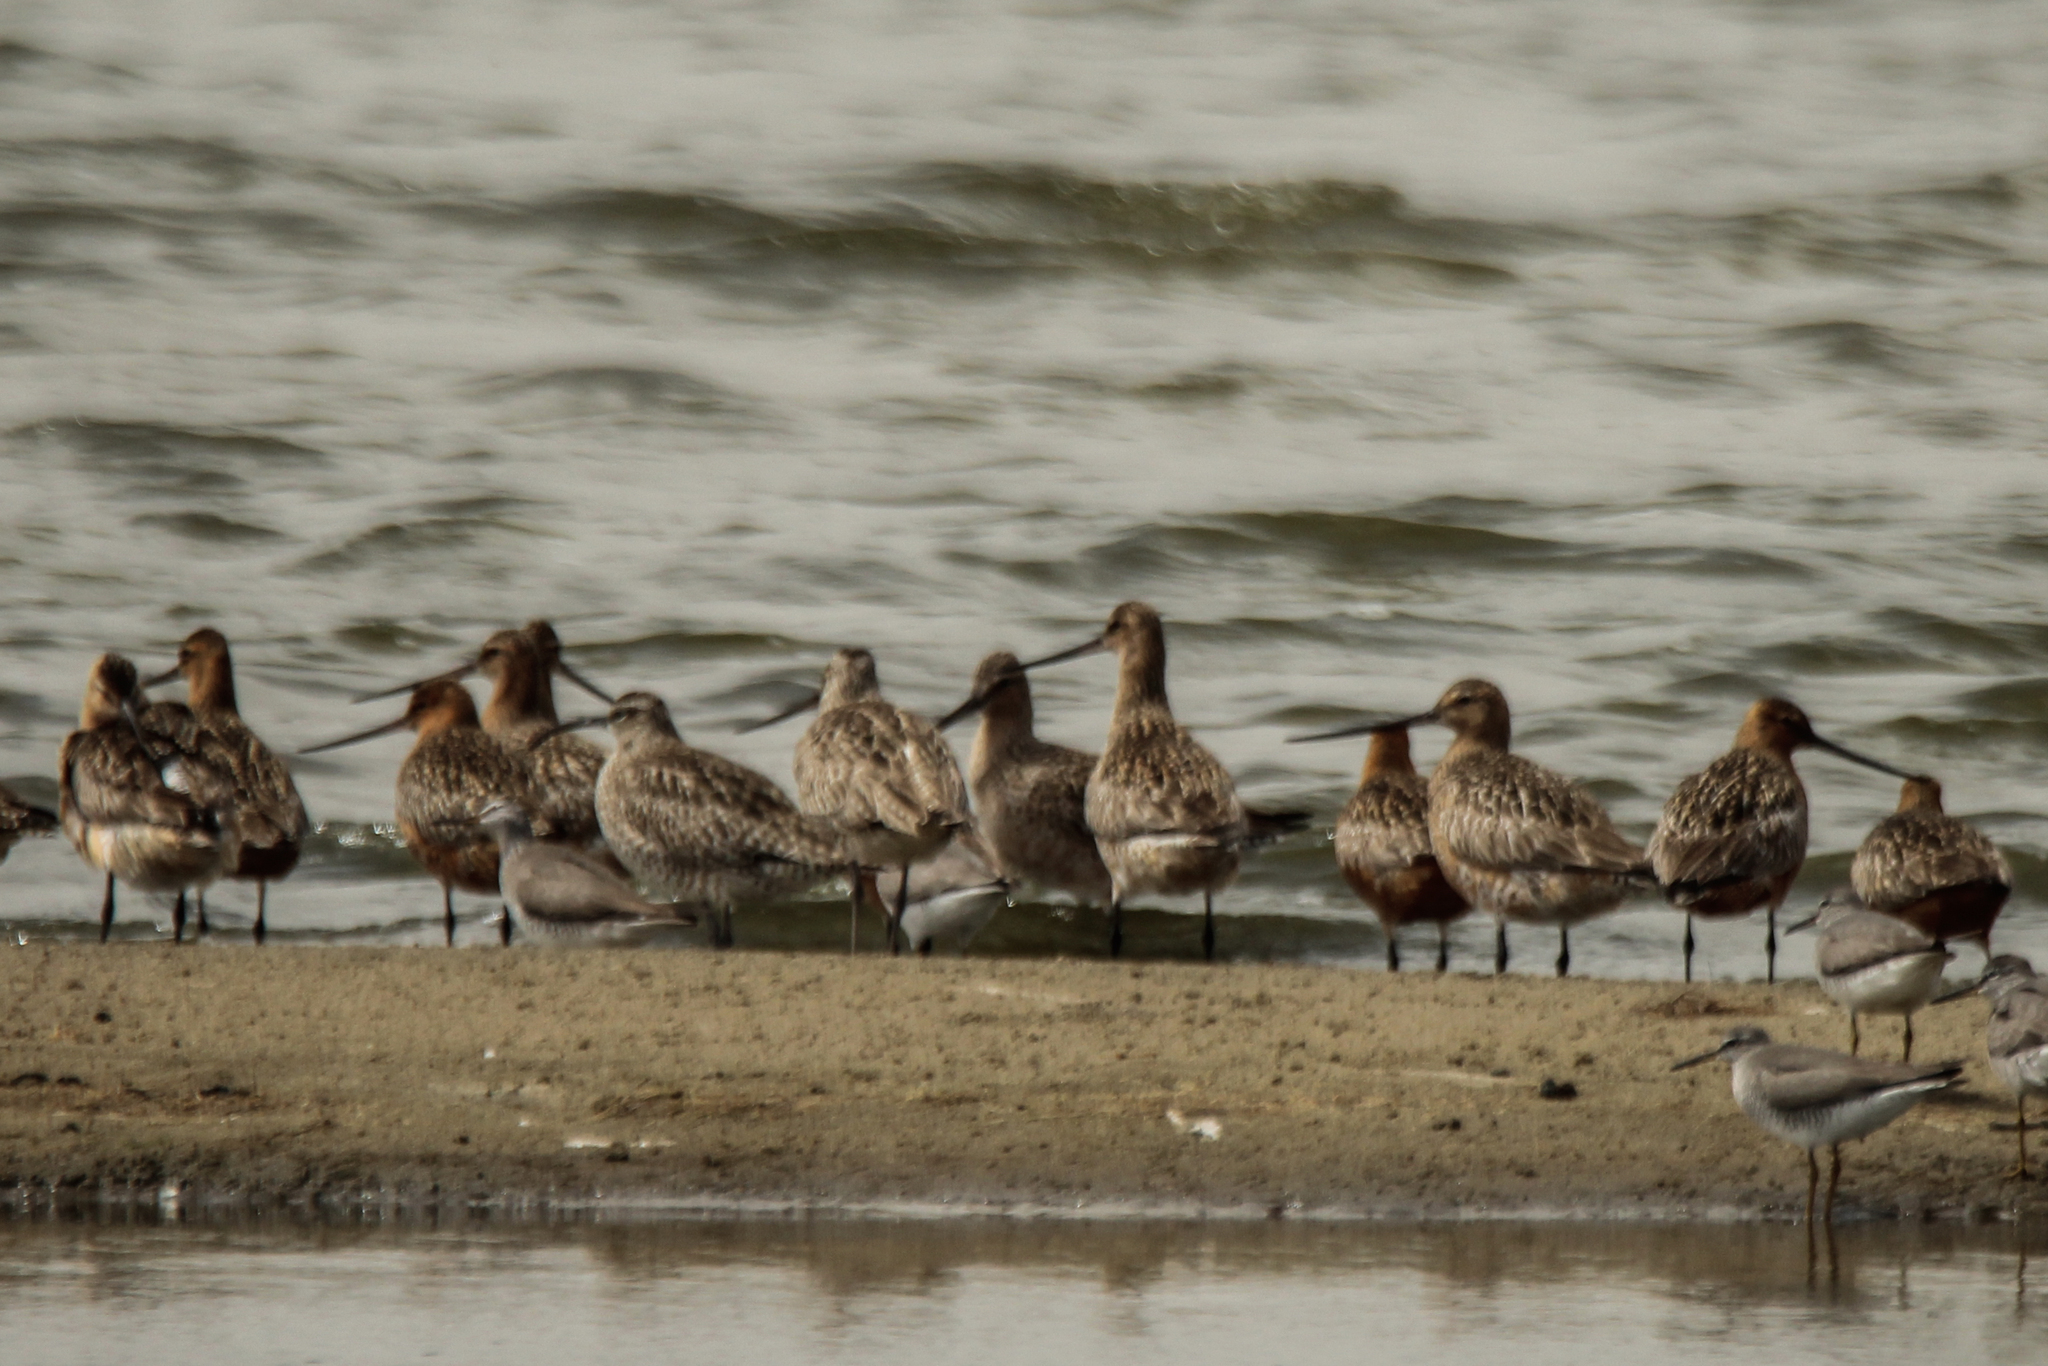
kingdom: Animalia
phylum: Chordata
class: Aves
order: Charadriiformes
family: Scolopacidae
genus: Limosa
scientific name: Limosa lapponica
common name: Bar-tailed godwit
